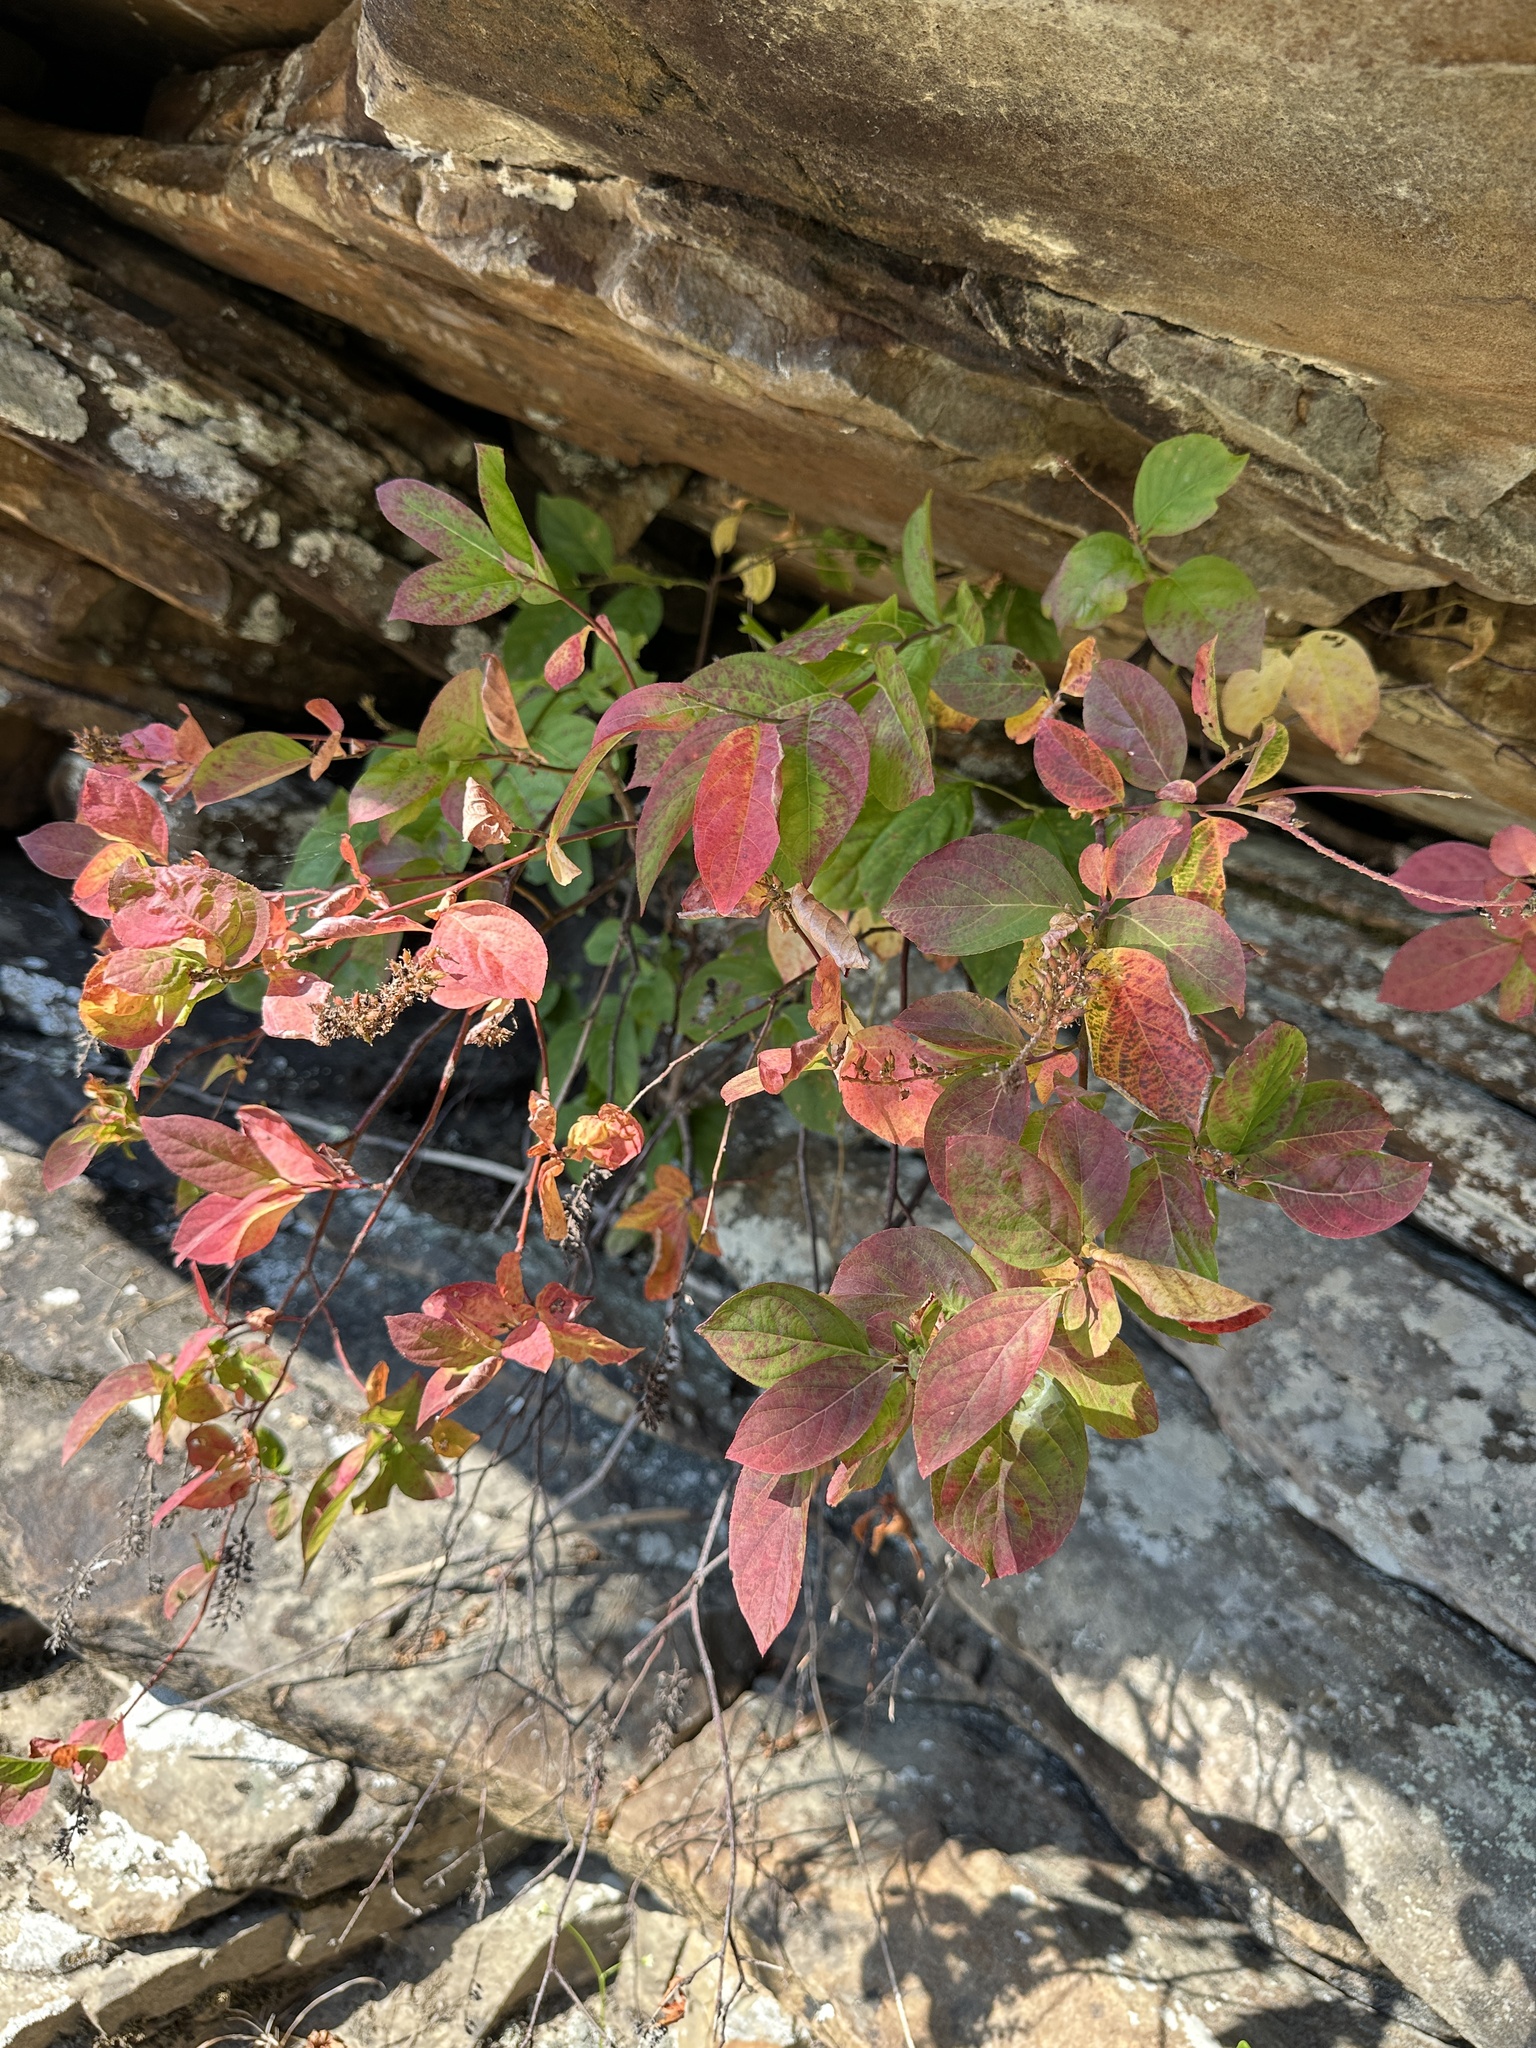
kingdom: Plantae
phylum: Tracheophyta
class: Magnoliopsida
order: Saxifragales
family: Iteaceae
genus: Itea
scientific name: Itea virginica
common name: Sweetspire
